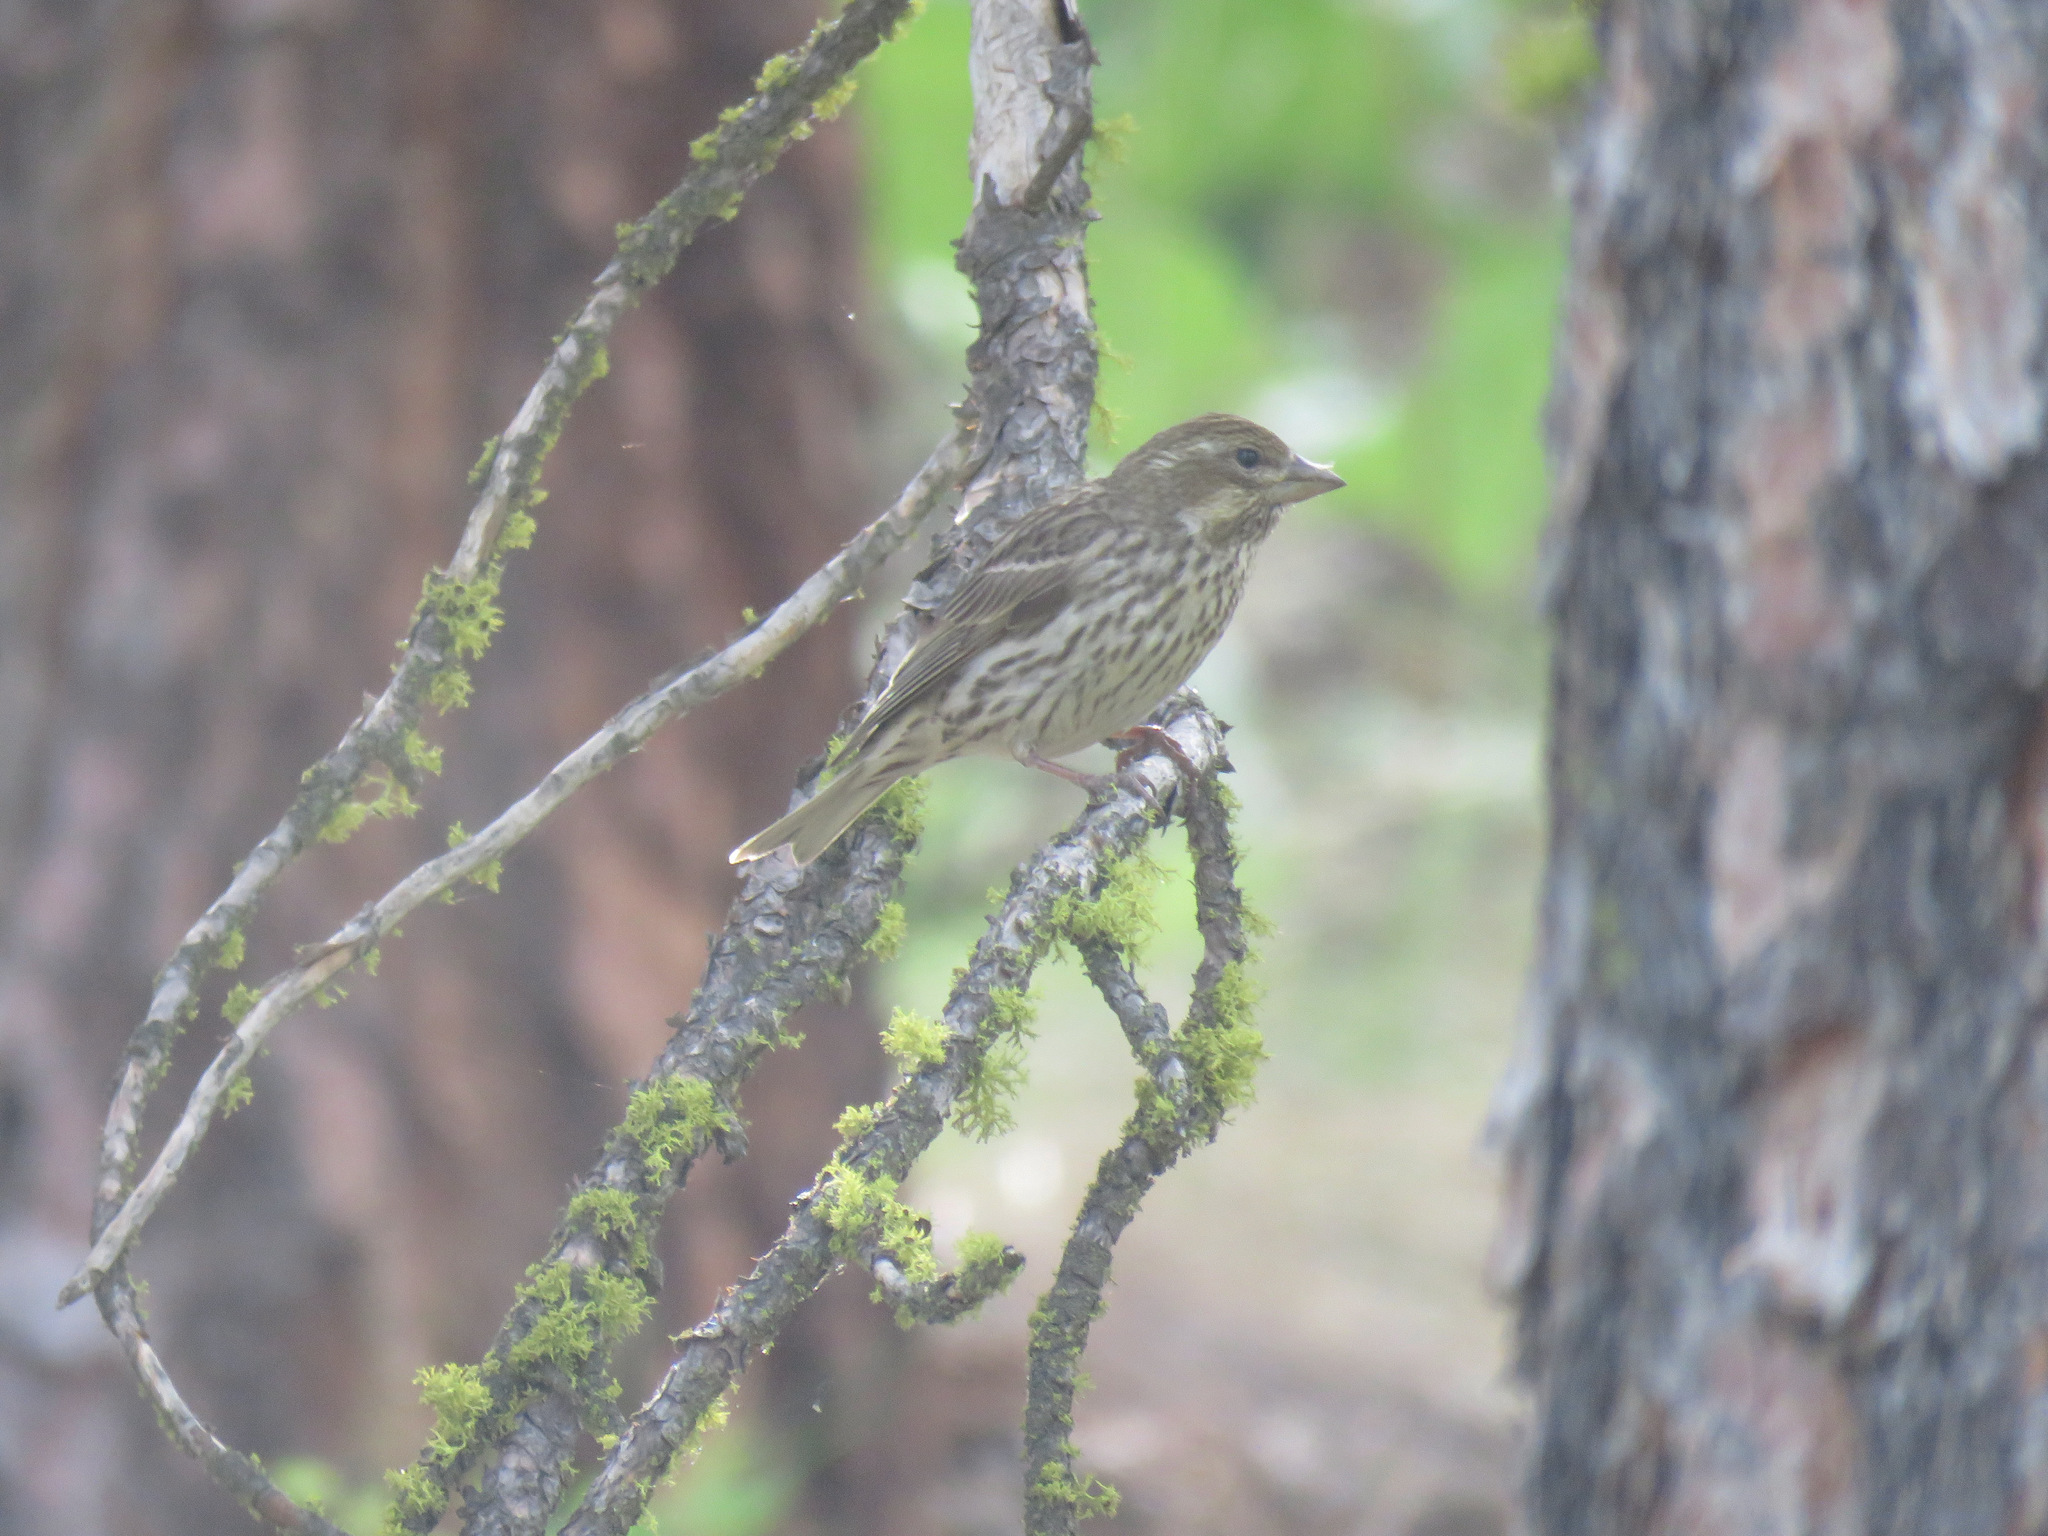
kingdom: Animalia
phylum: Chordata
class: Aves
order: Passeriformes
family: Fringillidae
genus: Haemorhous
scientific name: Haemorhous cassinii
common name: Cassin's finch
